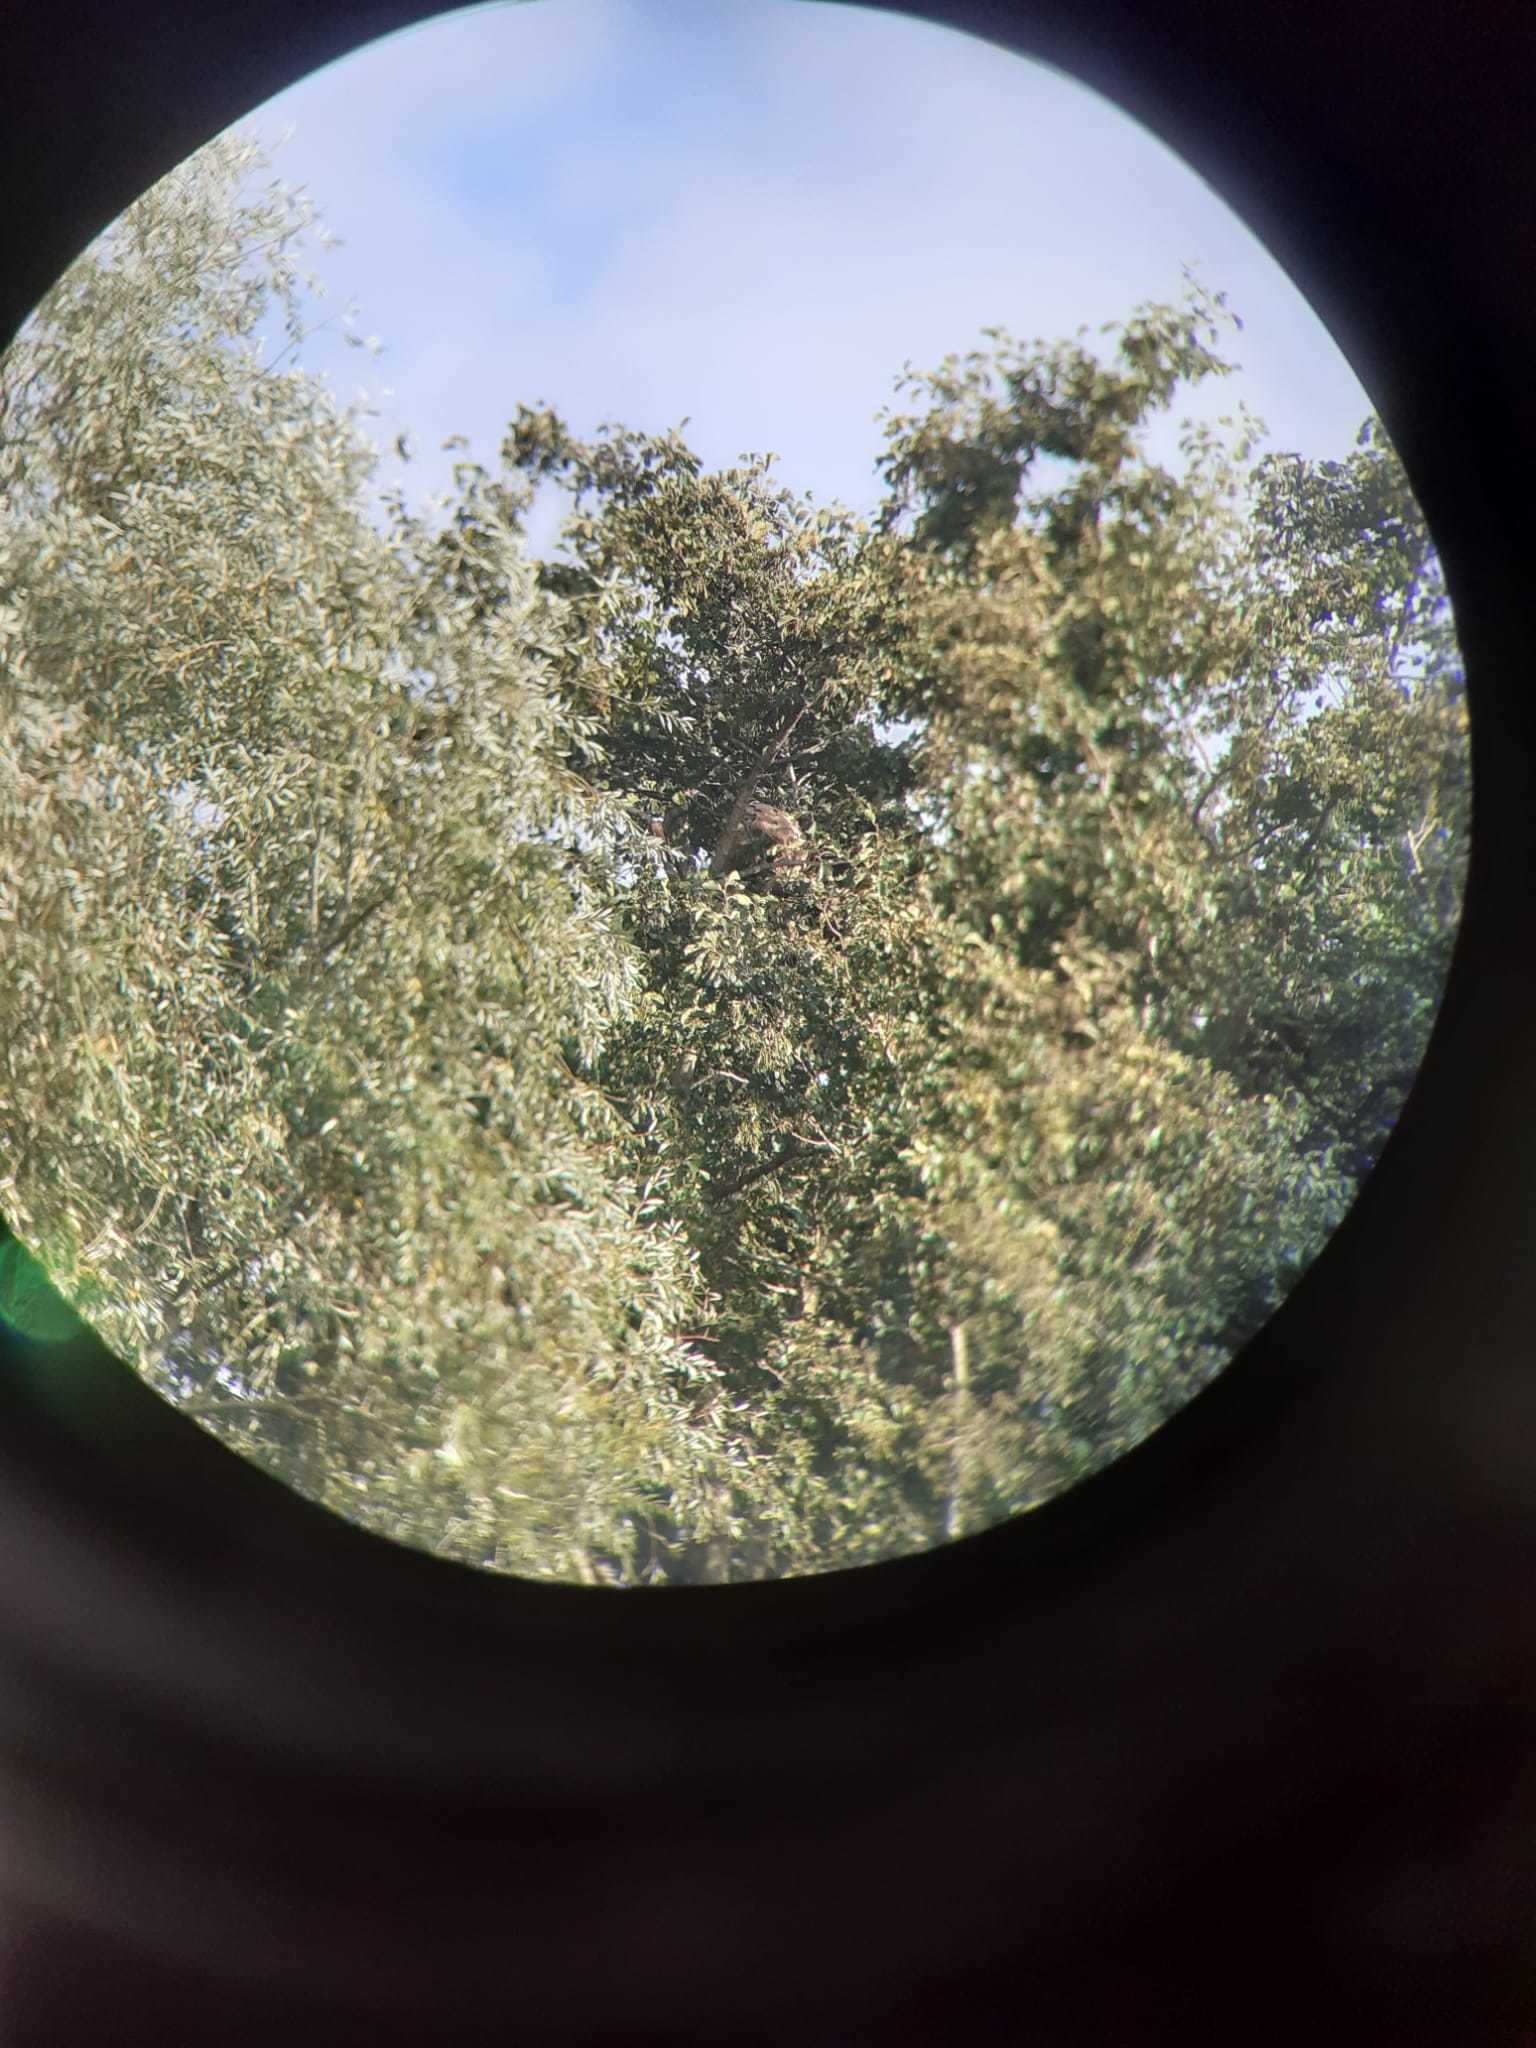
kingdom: Animalia
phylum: Arthropoda
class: Insecta
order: Hymenoptera
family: Vespidae
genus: Vespa
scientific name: Vespa velutina
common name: Asian hornet
